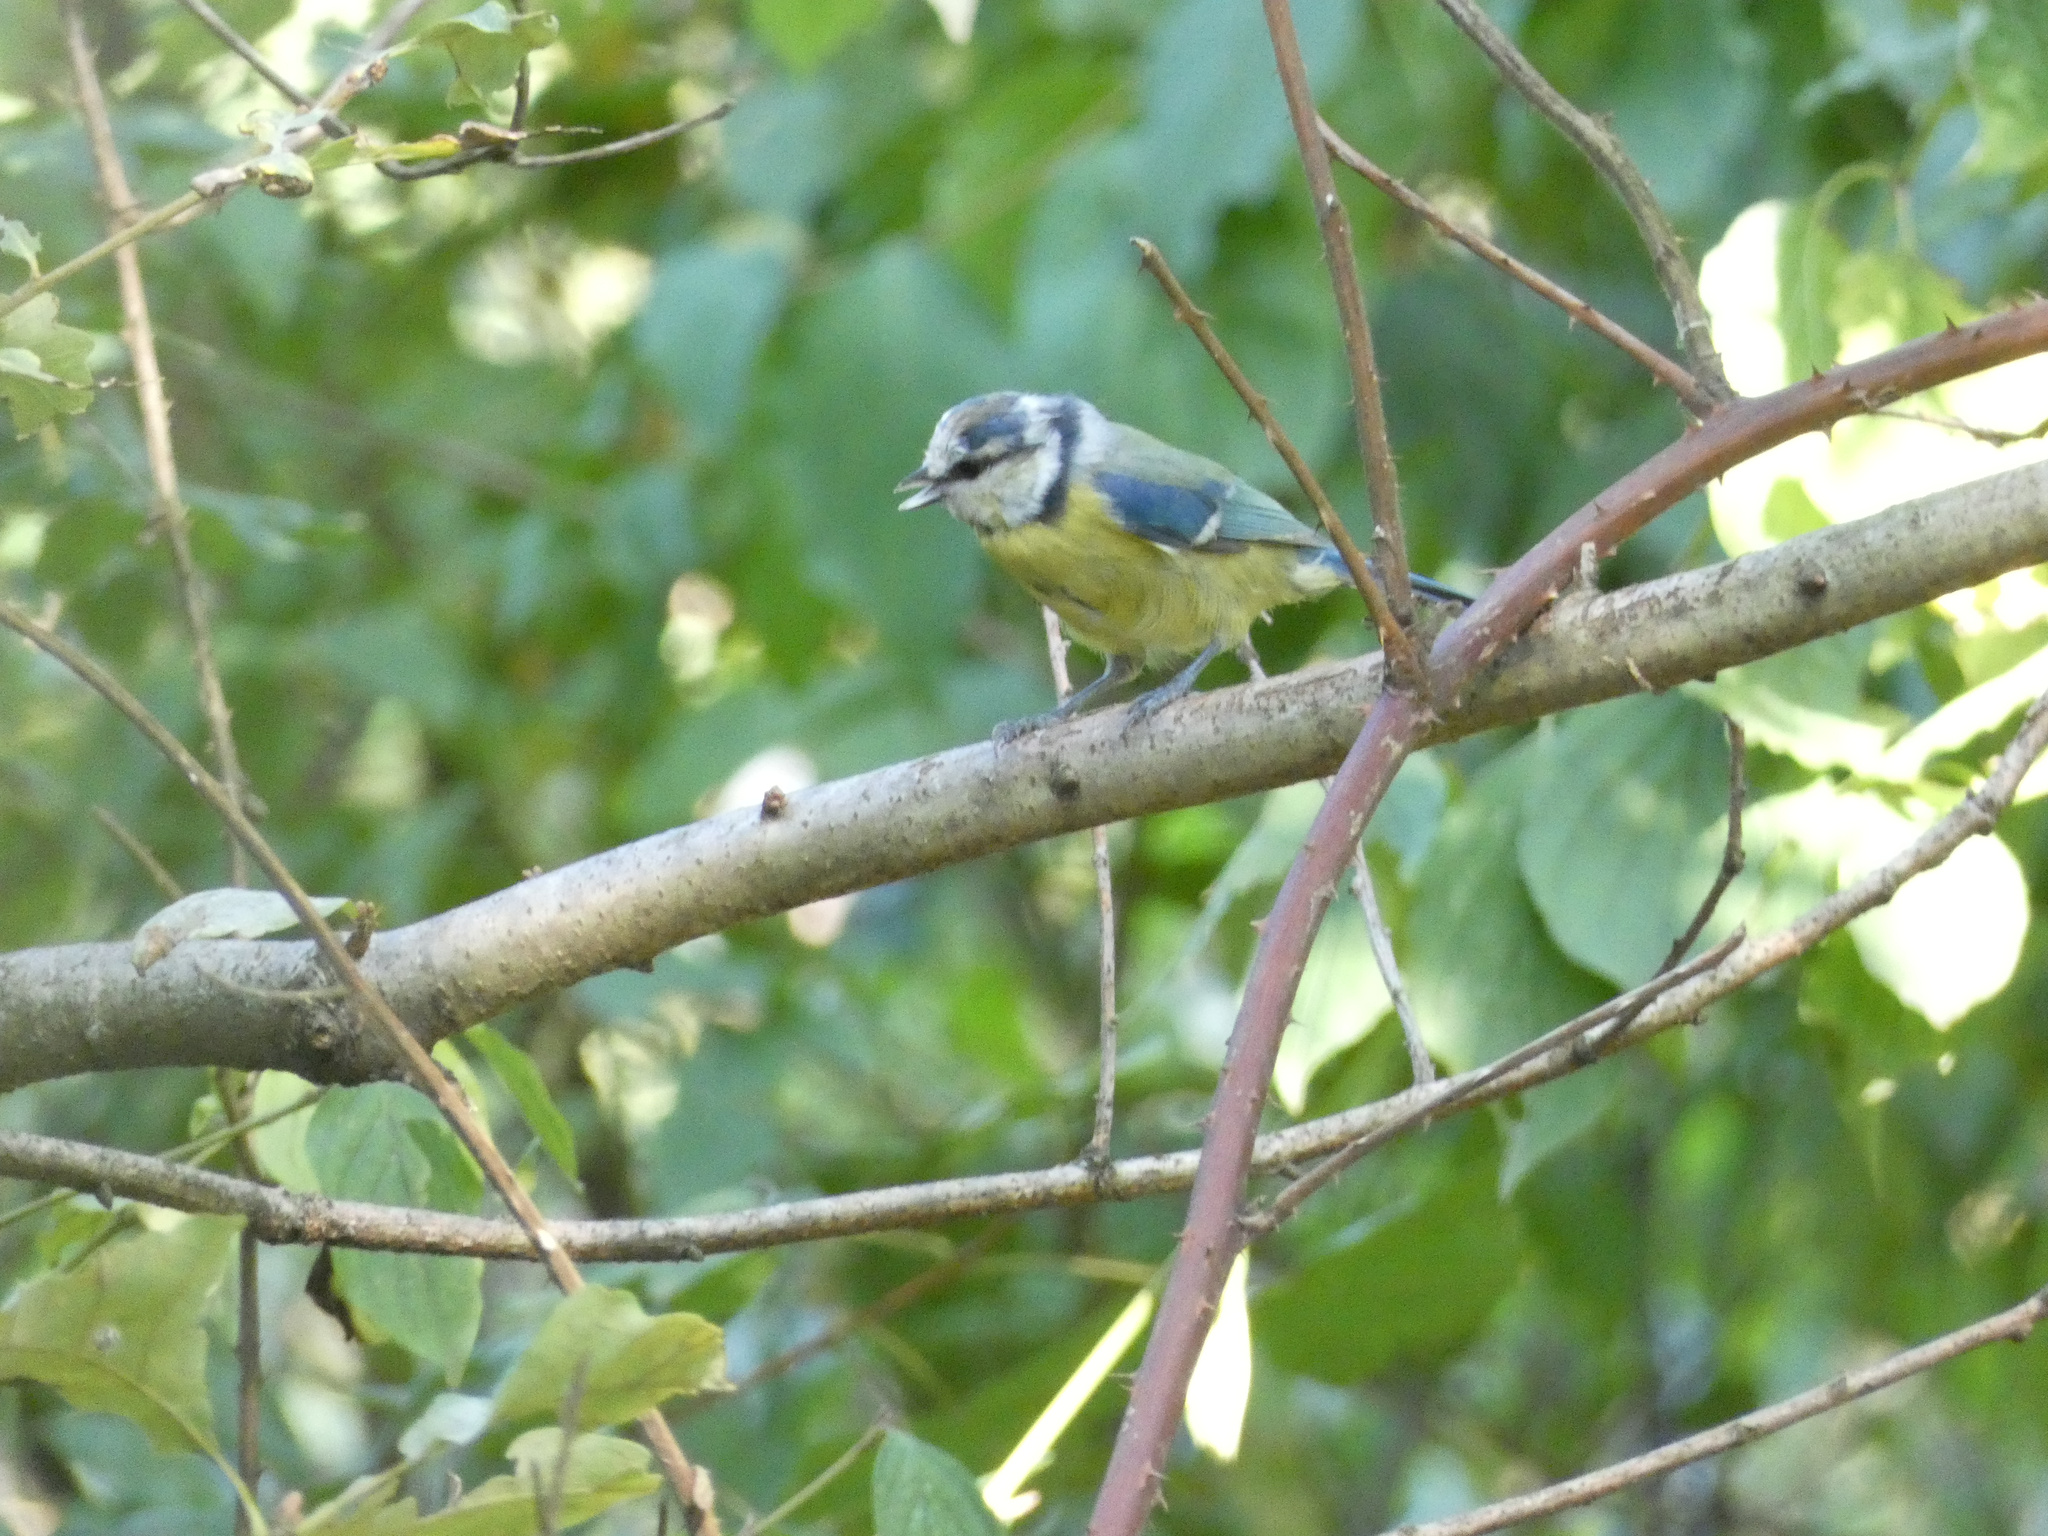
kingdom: Animalia
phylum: Chordata
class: Aves
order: Passeriformes
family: Paridae
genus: Cyanistes
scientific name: Cyanistes caeruleus
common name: Eurasian blue tit
